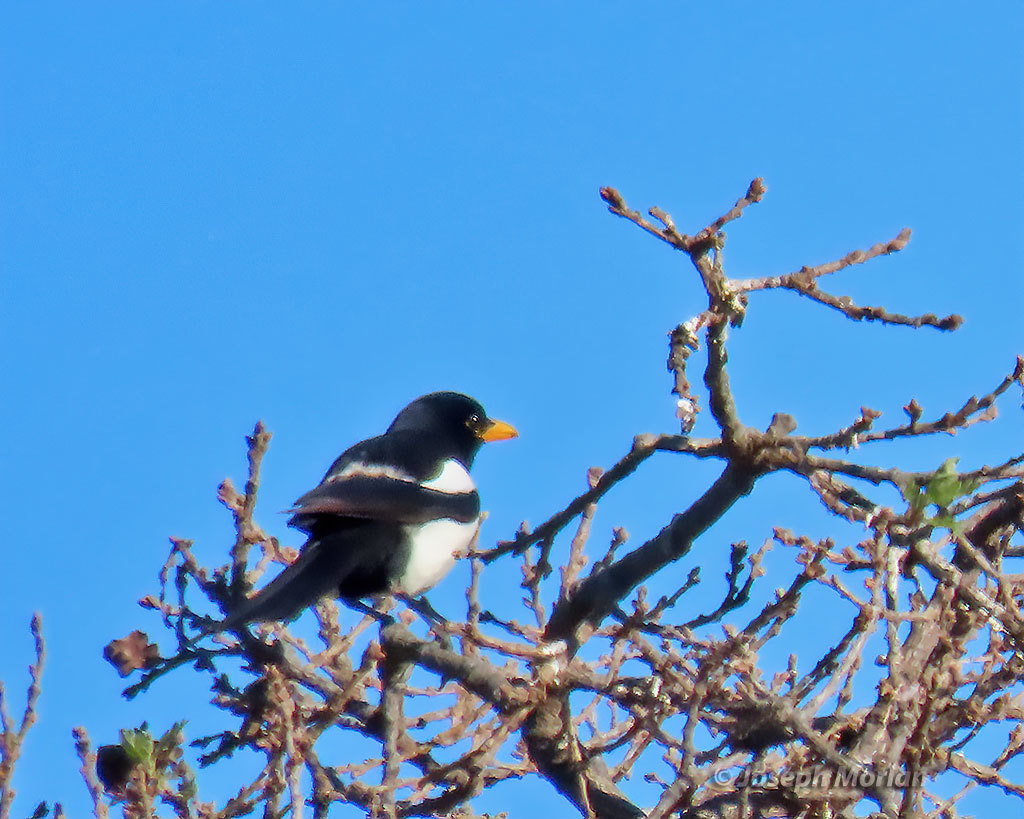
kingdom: Animalia
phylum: Chordata
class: Aves
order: Passeriformes
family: Corvidae
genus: Pica
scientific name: Pica nuttalli
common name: Yellow-billed magpie
